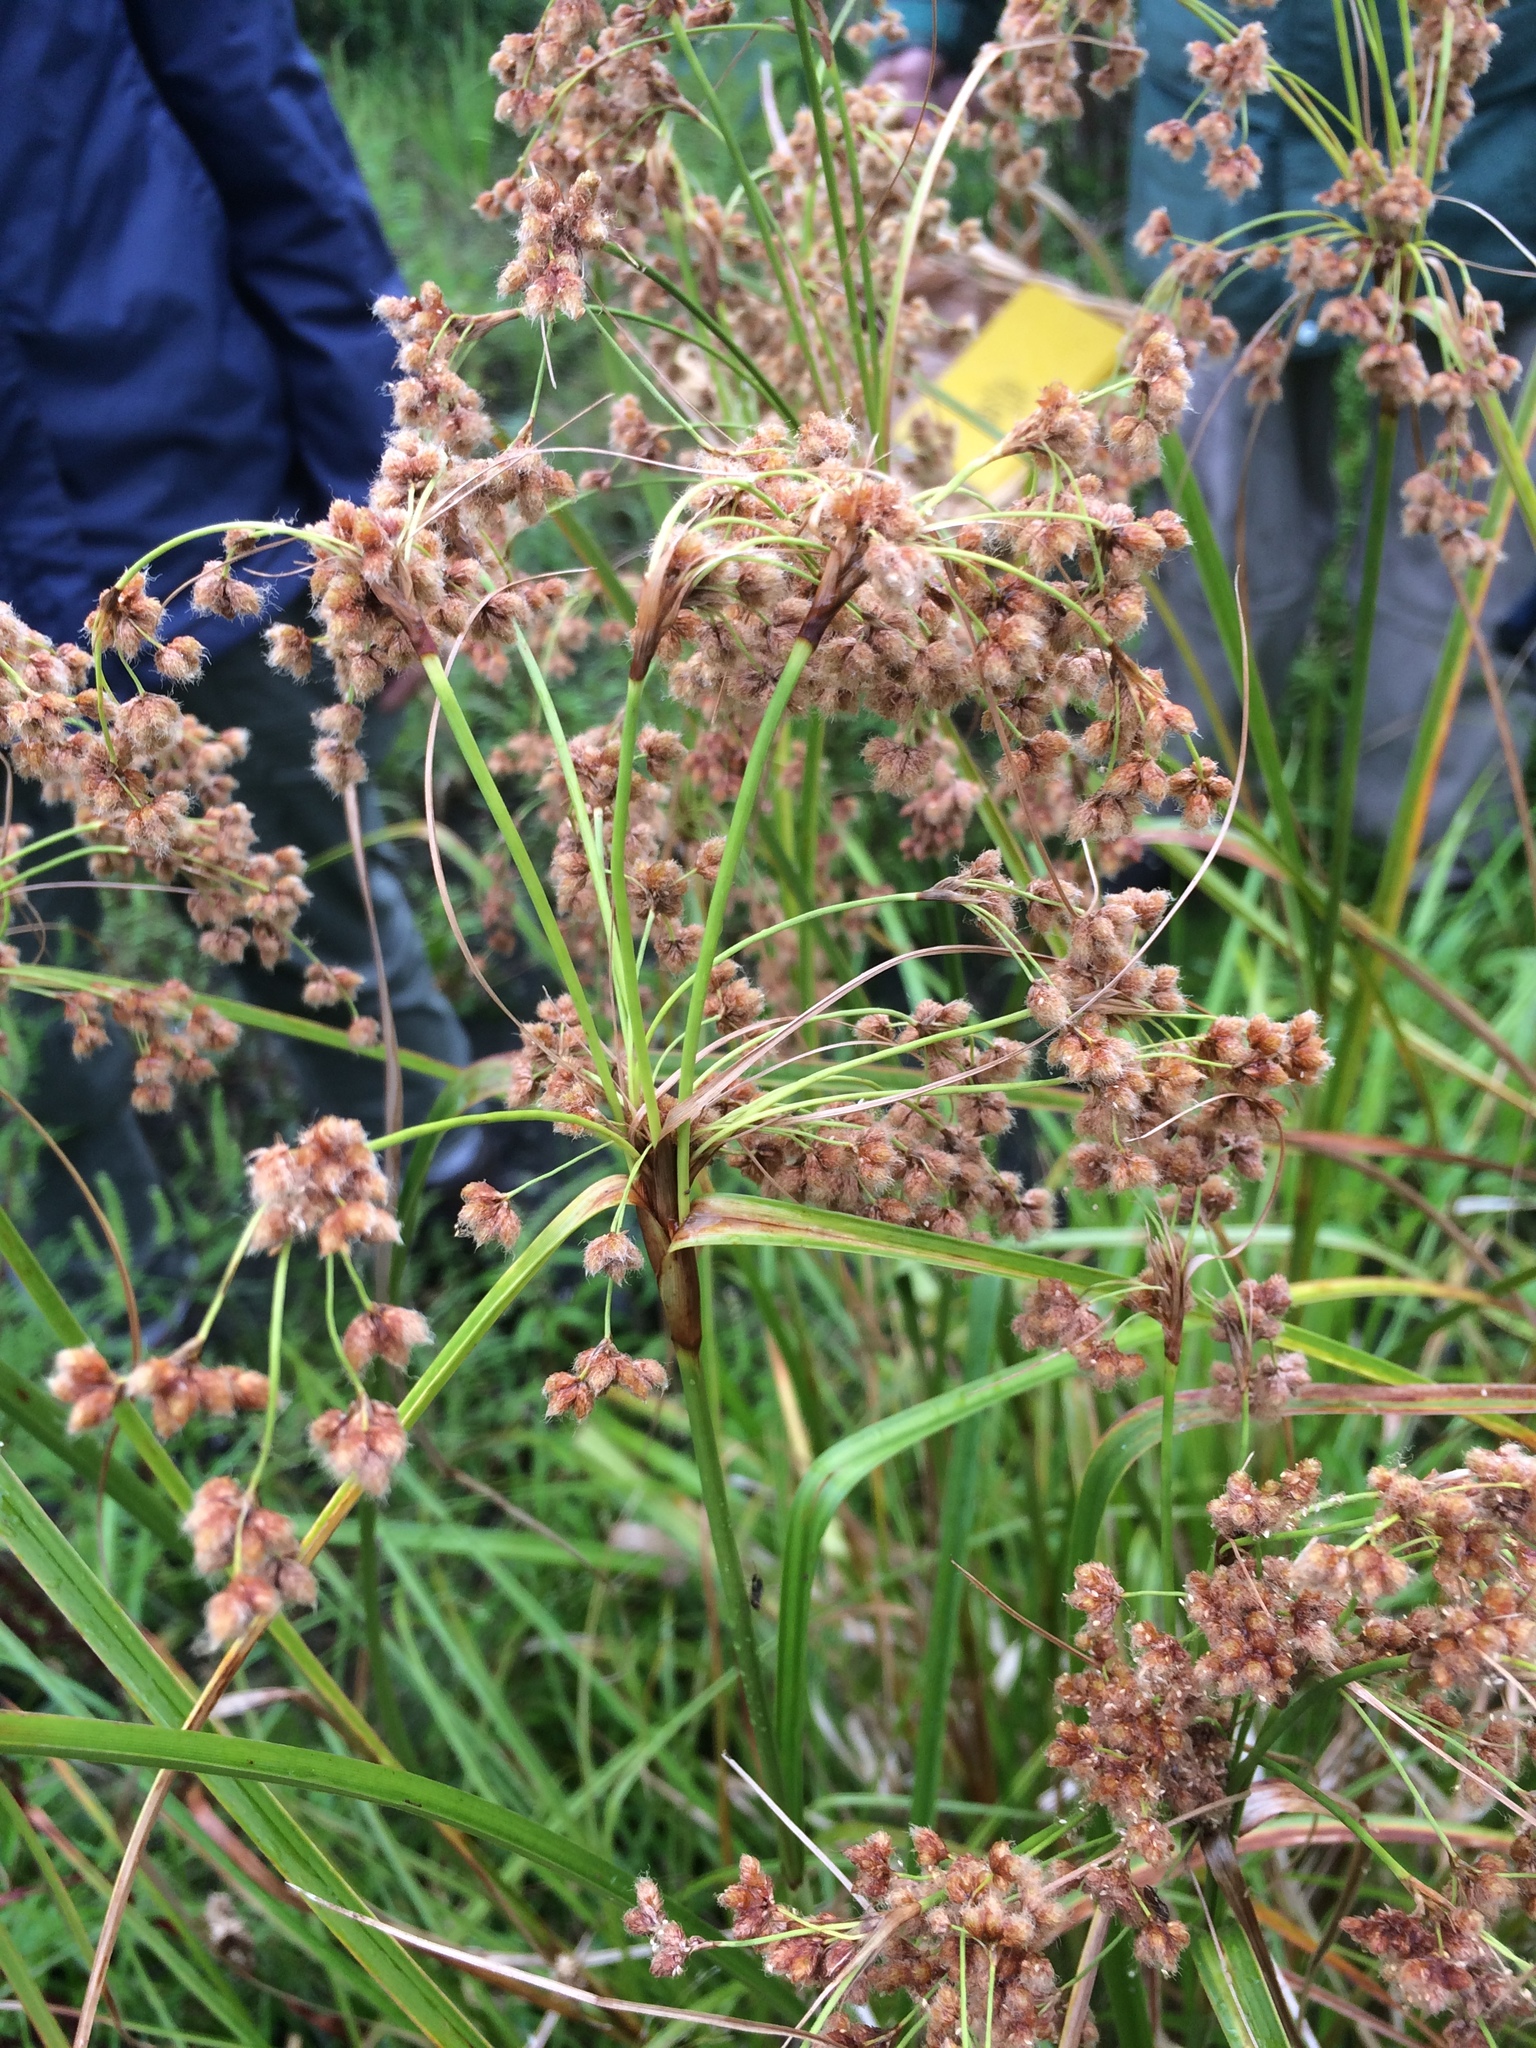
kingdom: Plantae
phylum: Tracheophyta
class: Liliopsida
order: Poales
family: Cyperaceae
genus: Scirpus
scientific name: Scirpus cyperinus
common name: Black-sheathed bulrush
